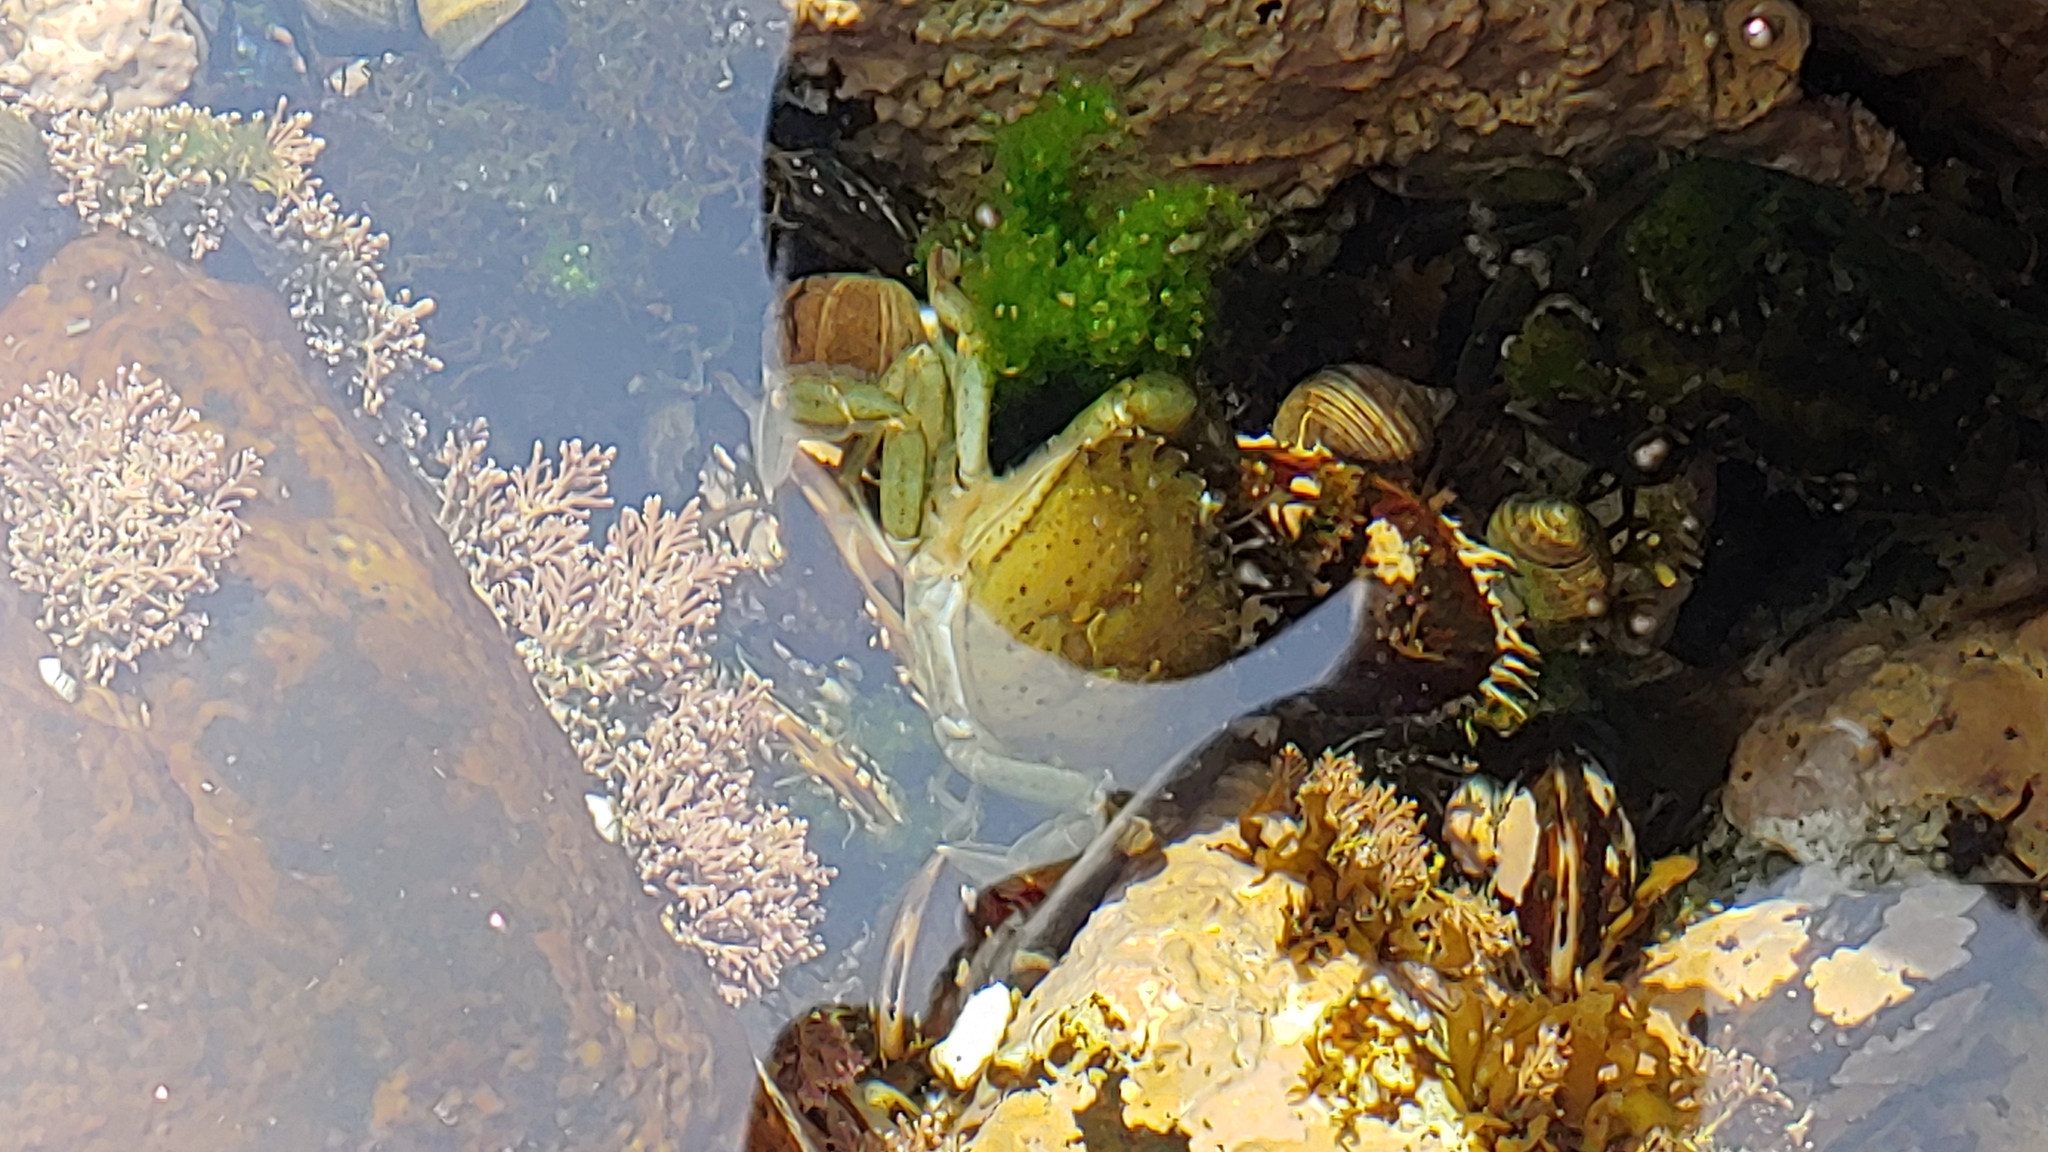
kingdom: Animalia
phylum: Arthropoda
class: Malacostraca
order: Decapoda
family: Carcinidae
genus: Carcinus
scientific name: Carcinus maenas
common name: European green crab
